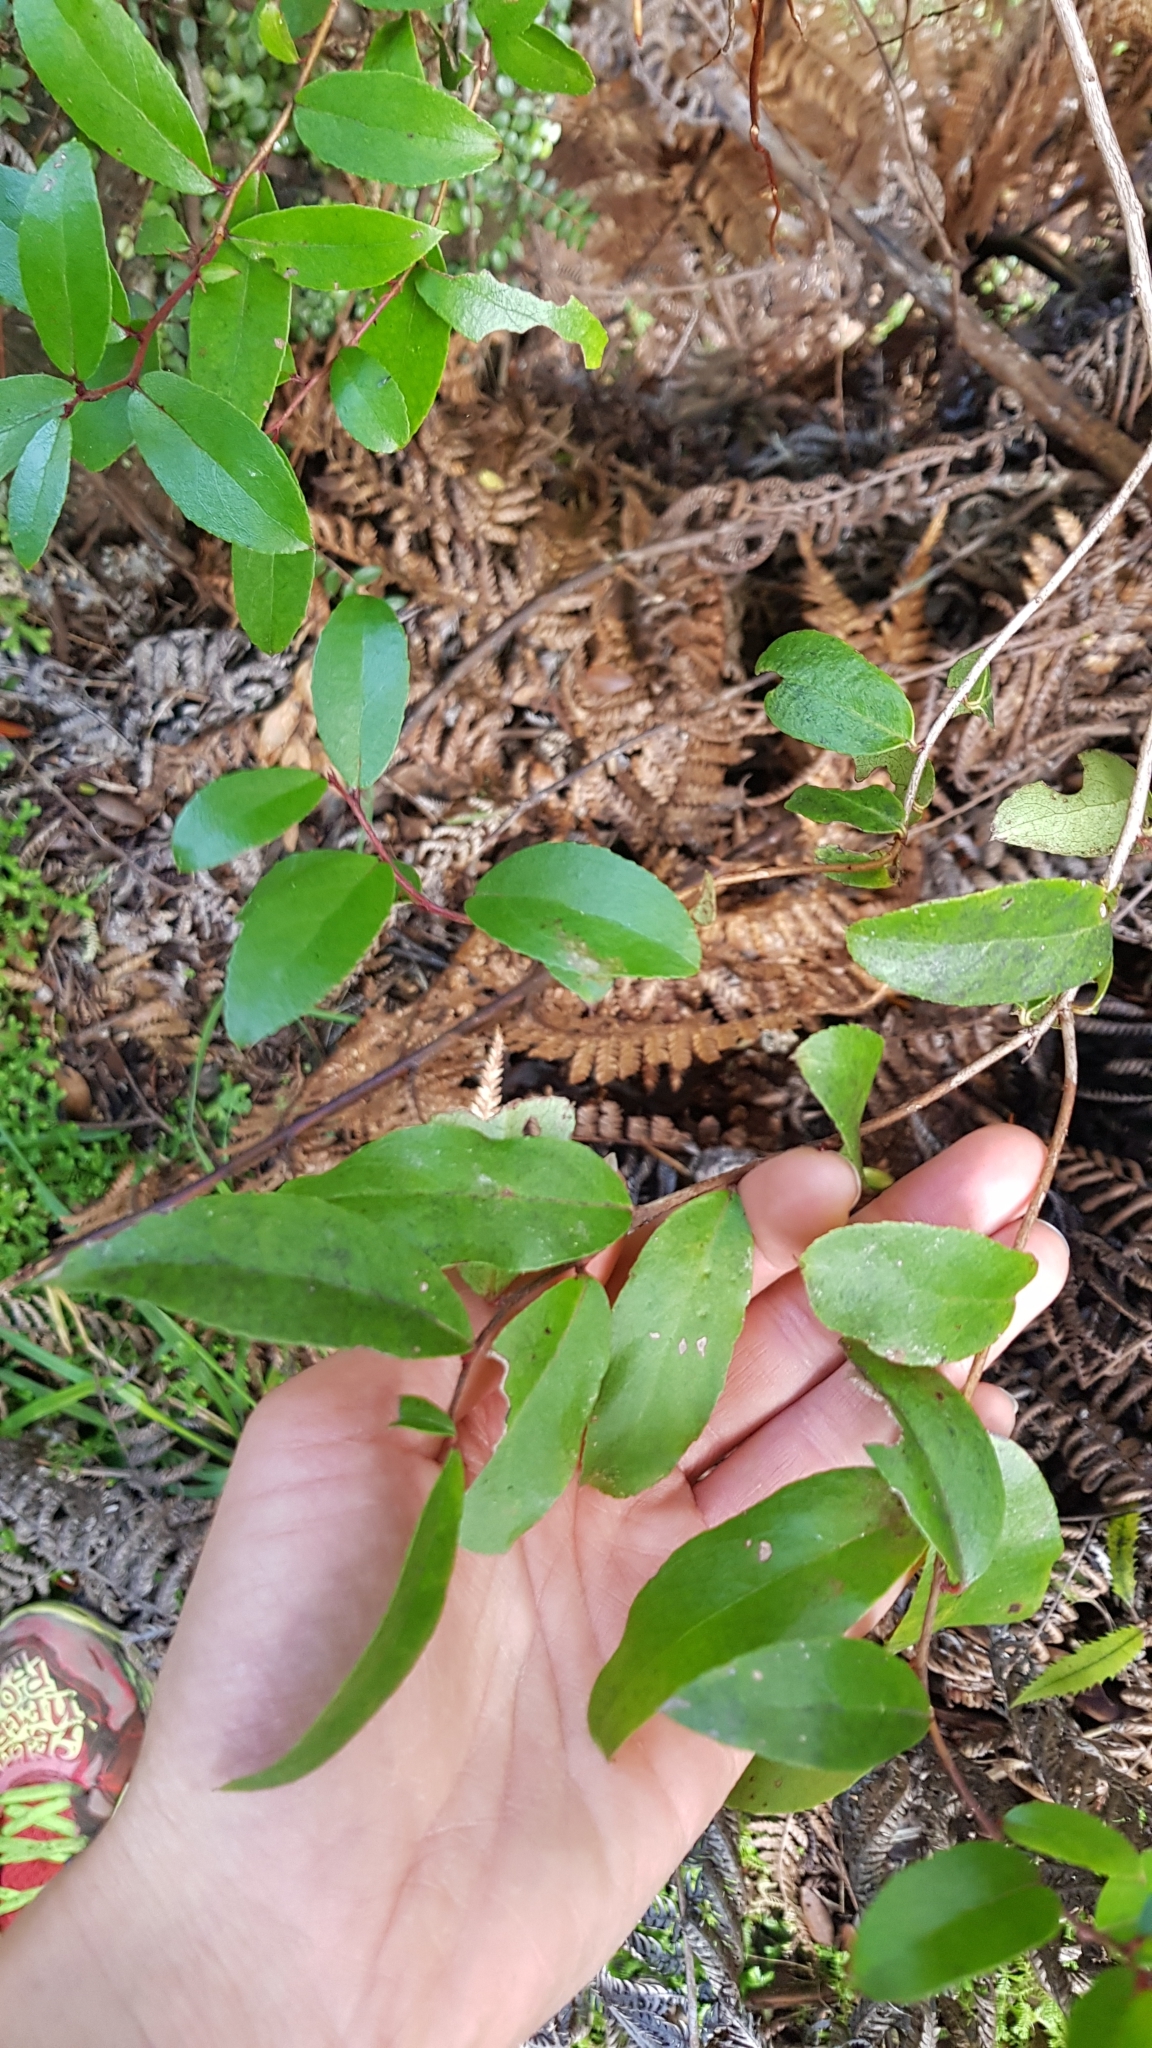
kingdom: Plantae
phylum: Tracheophyta
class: Magnoliopsida
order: Ericales
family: Ericaceae
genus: Gaultheria
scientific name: Gaultheria paniculata
